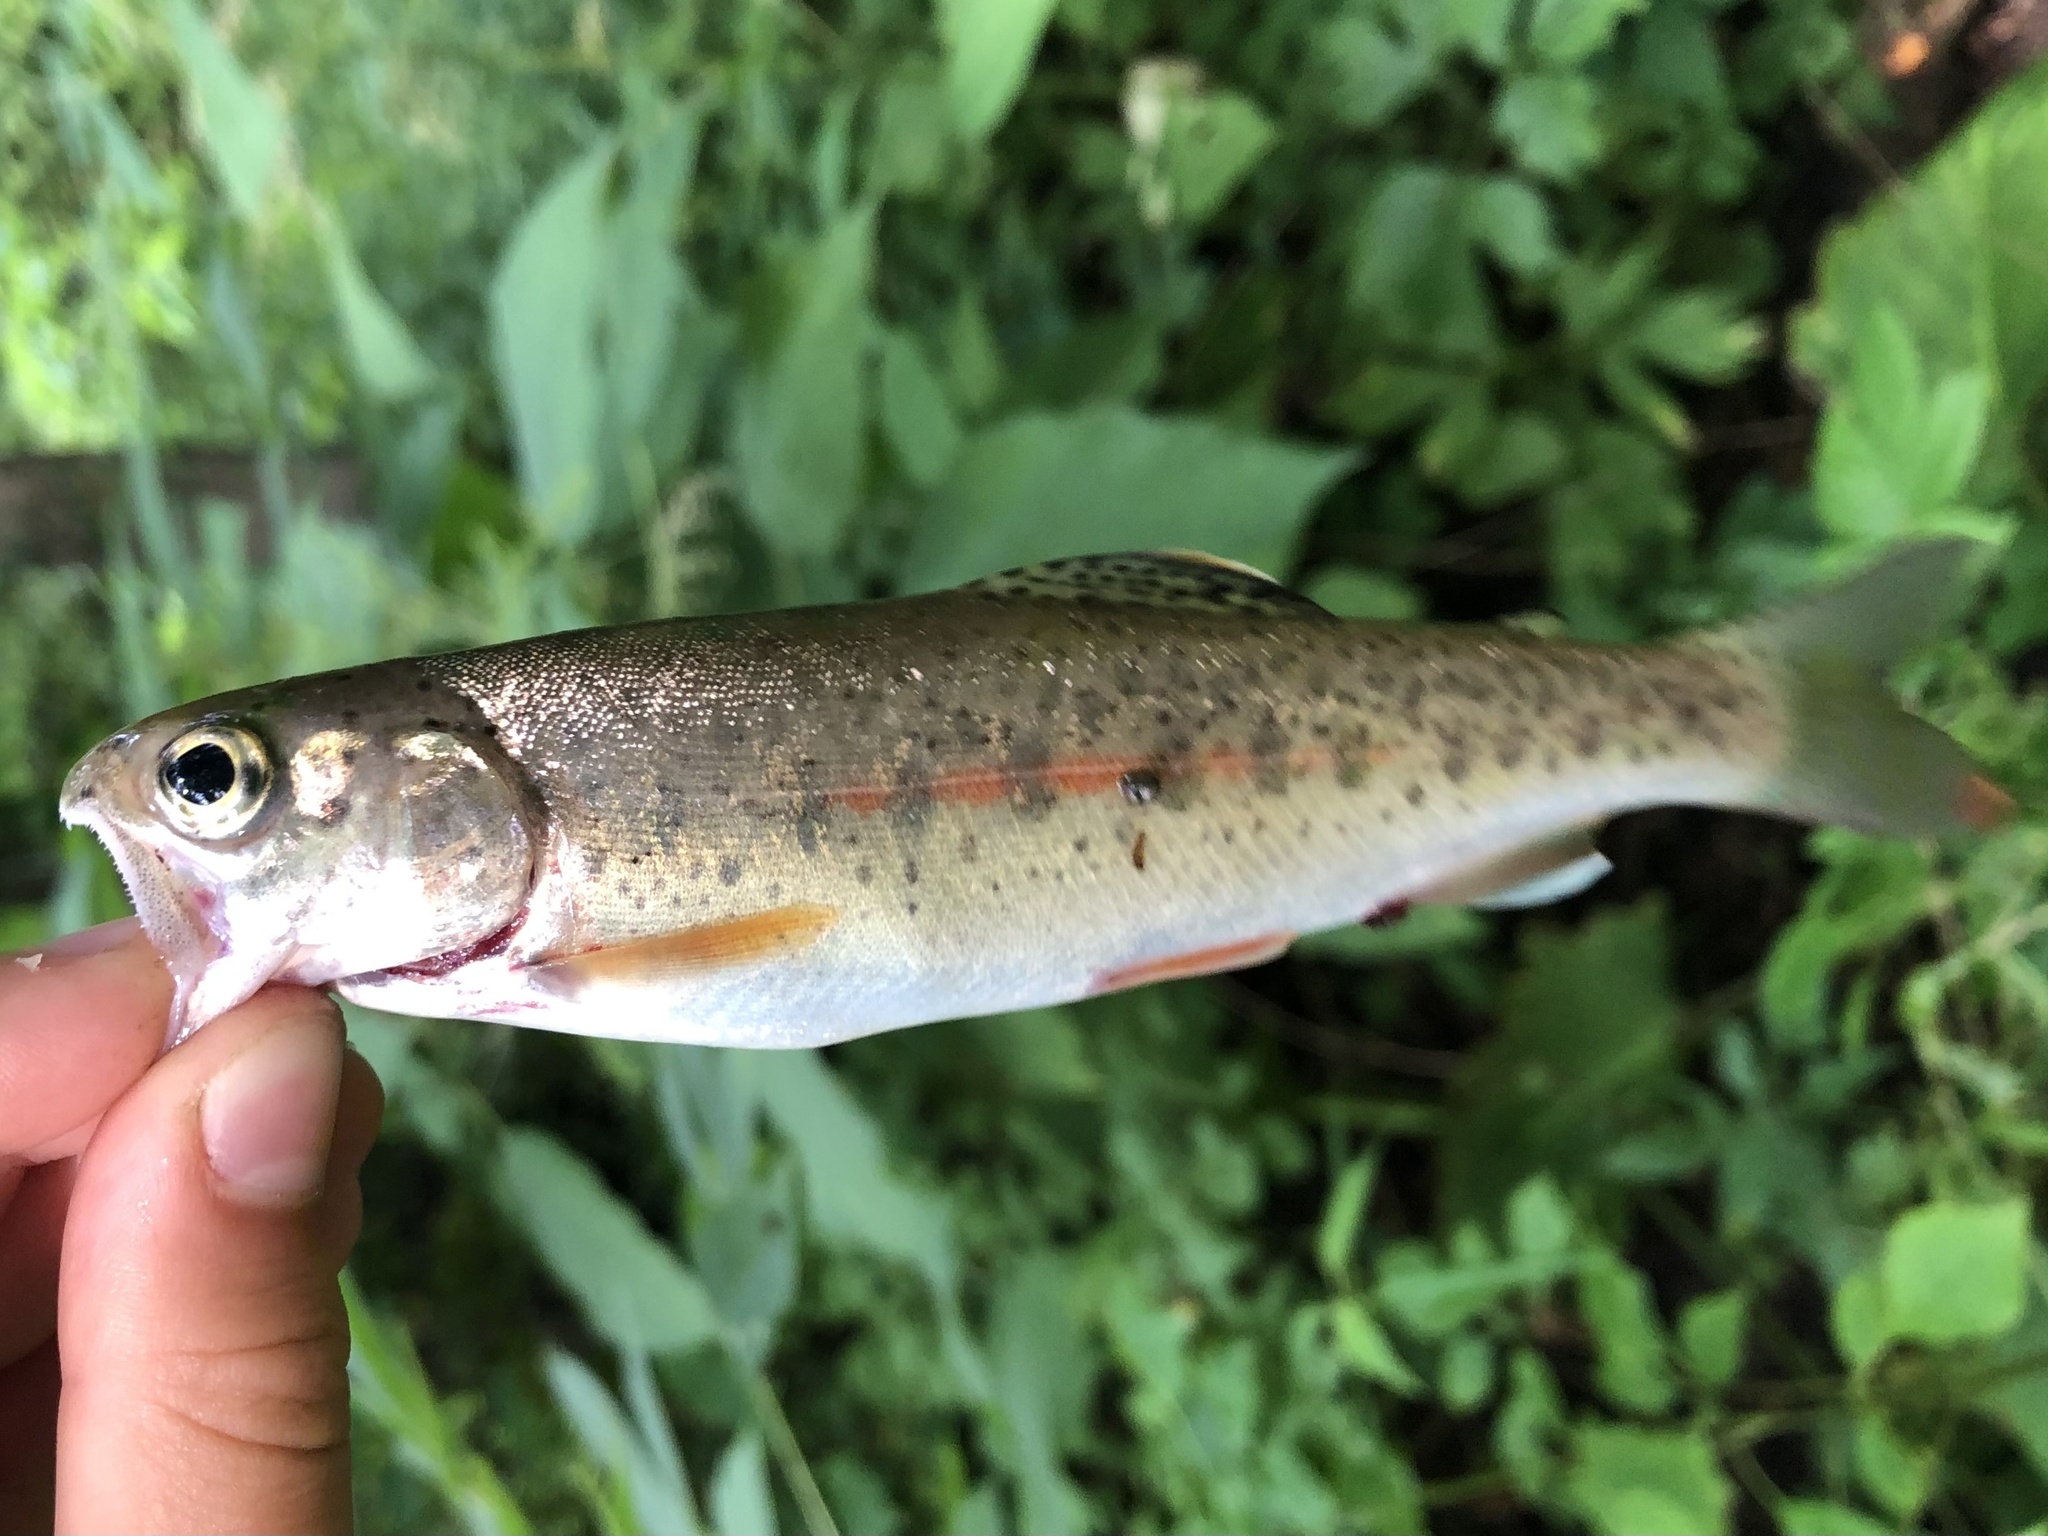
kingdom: Animalia
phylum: Chordata
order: Salmoniformes
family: Salmonidae
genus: Oncorhynchus
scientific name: Oncorhynchus mykiss
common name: Rainbow trout
